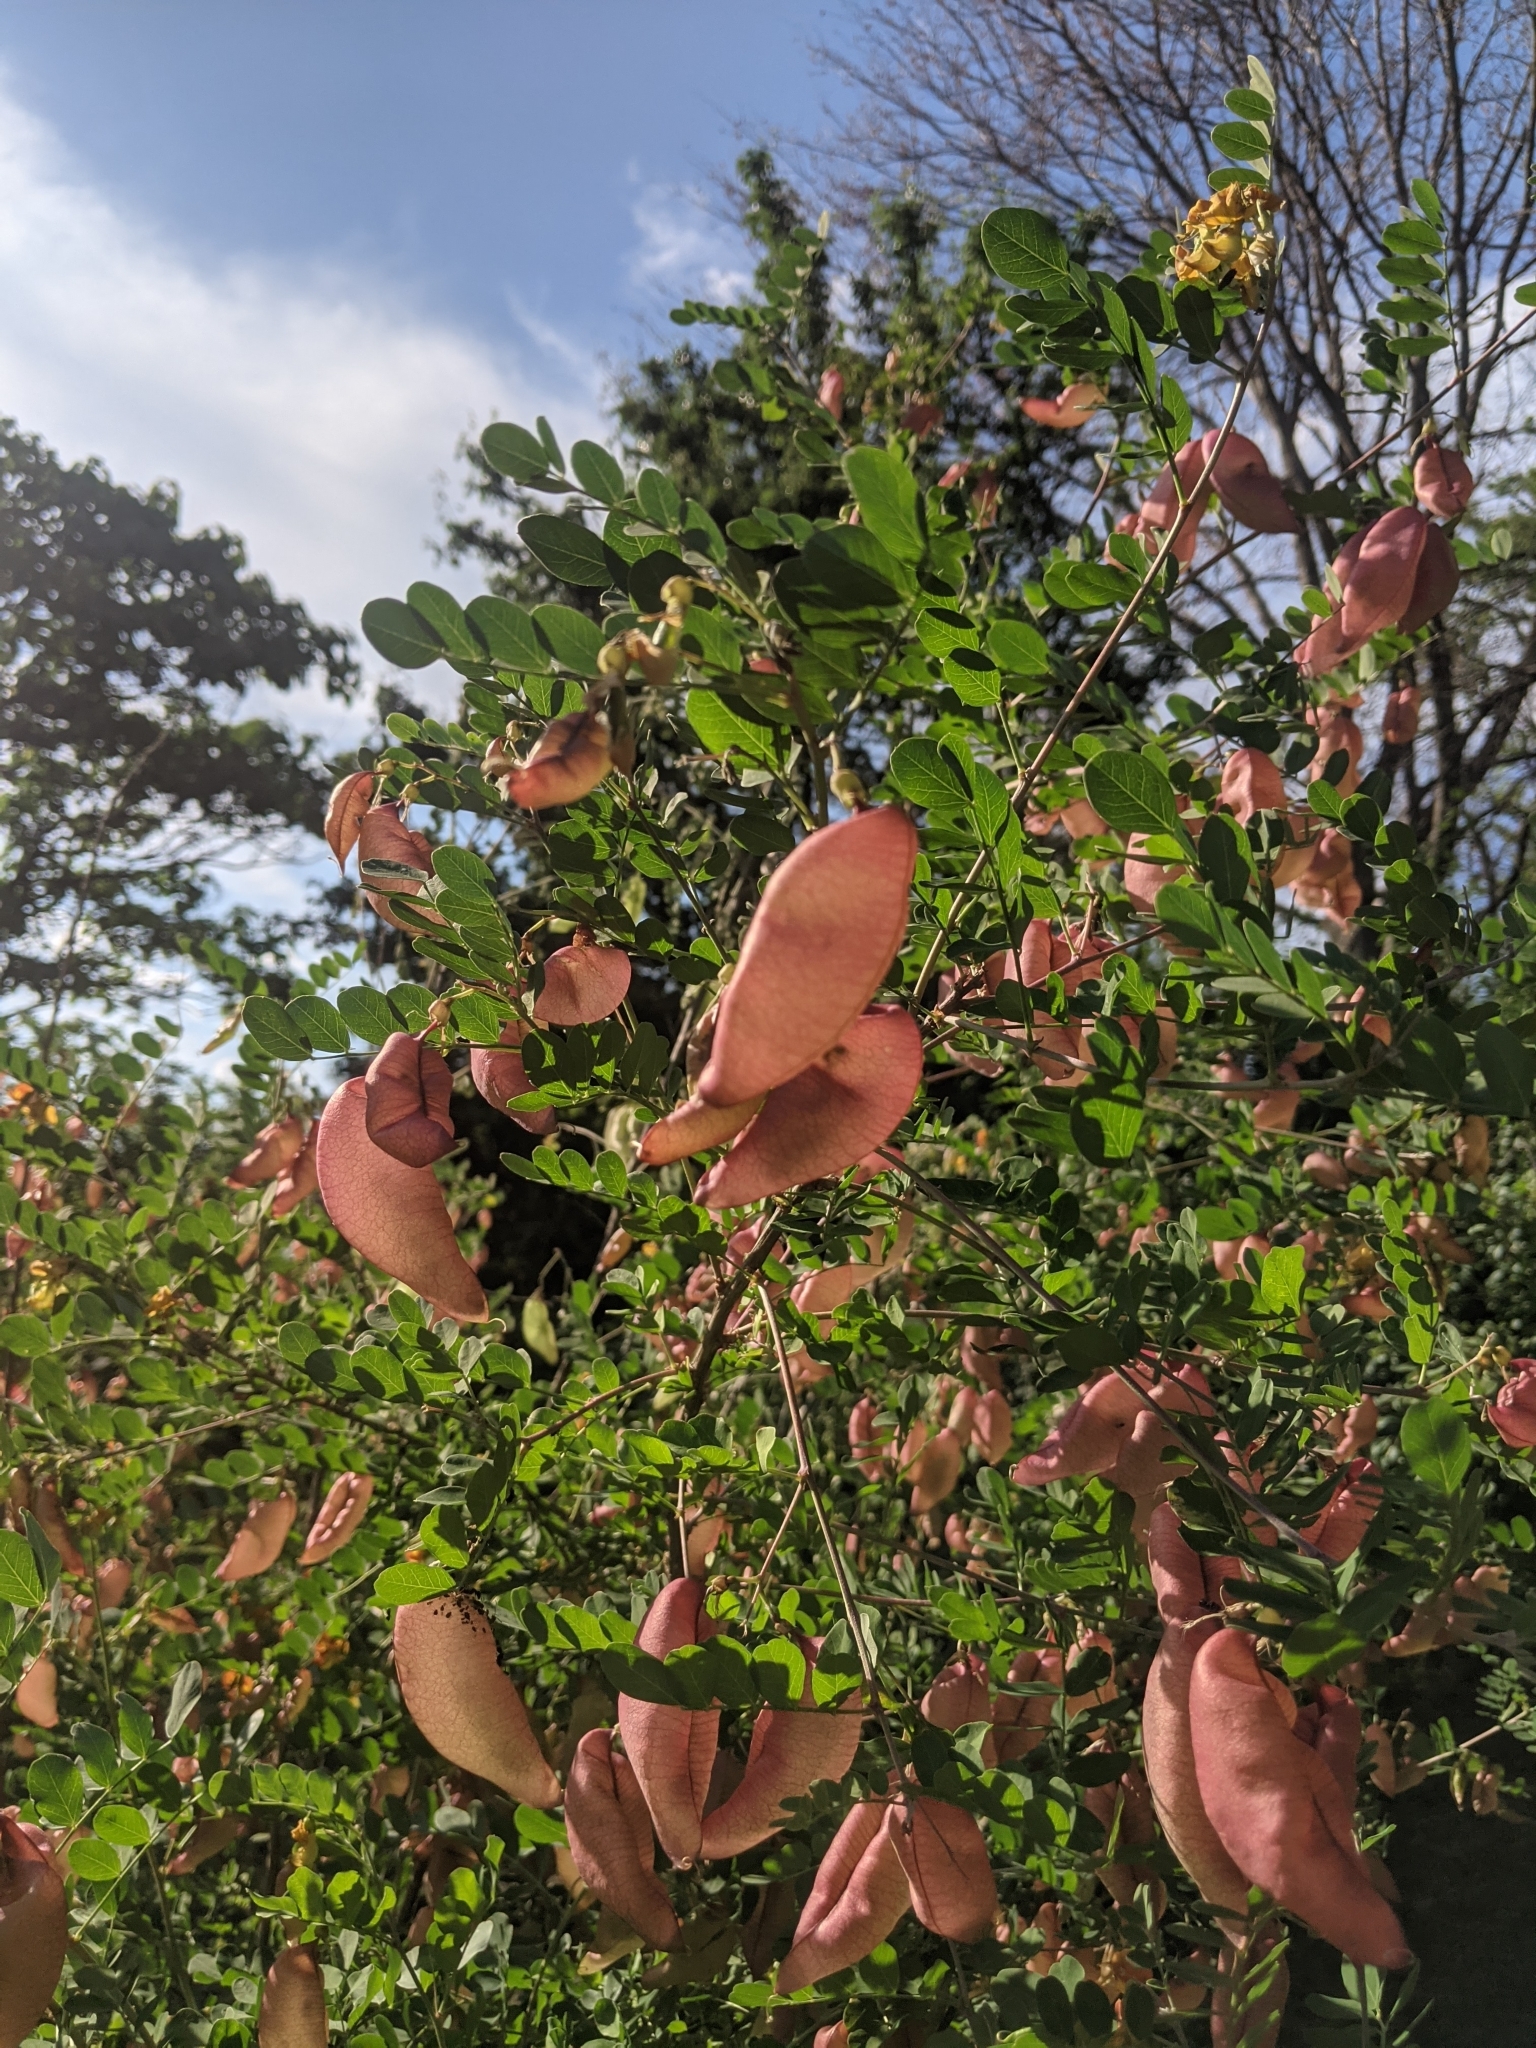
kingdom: Plantae
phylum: Tracheophyta
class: Magnoliopsida
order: Fabales
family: Fabaceae
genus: Colutea
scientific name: Colutea arborescens
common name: Bladder-senna
